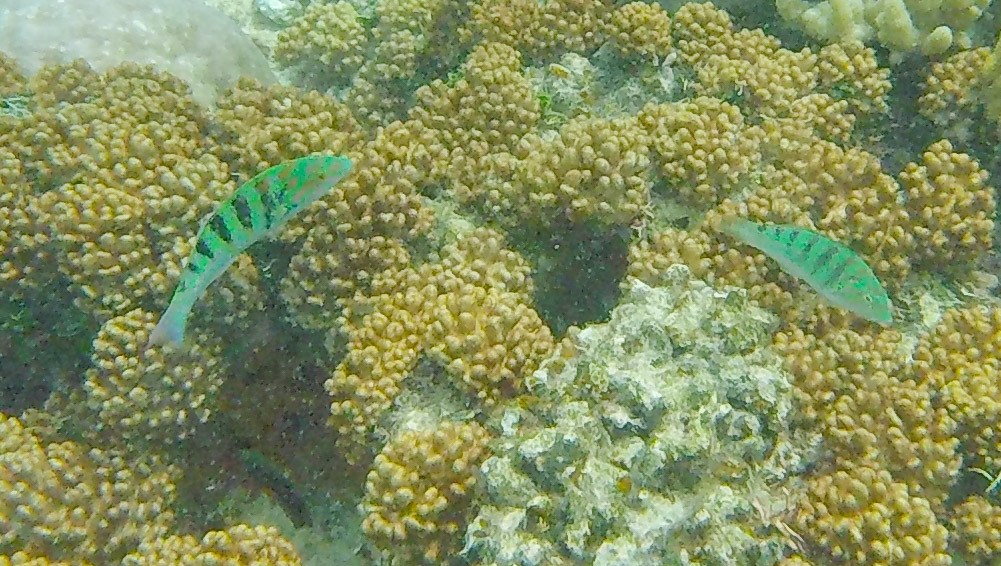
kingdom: Animalia
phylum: Chordata
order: Perciformes
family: Labridae
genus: Thalassoma
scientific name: Thalassoma hardwicke
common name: Sixbar wrasse
